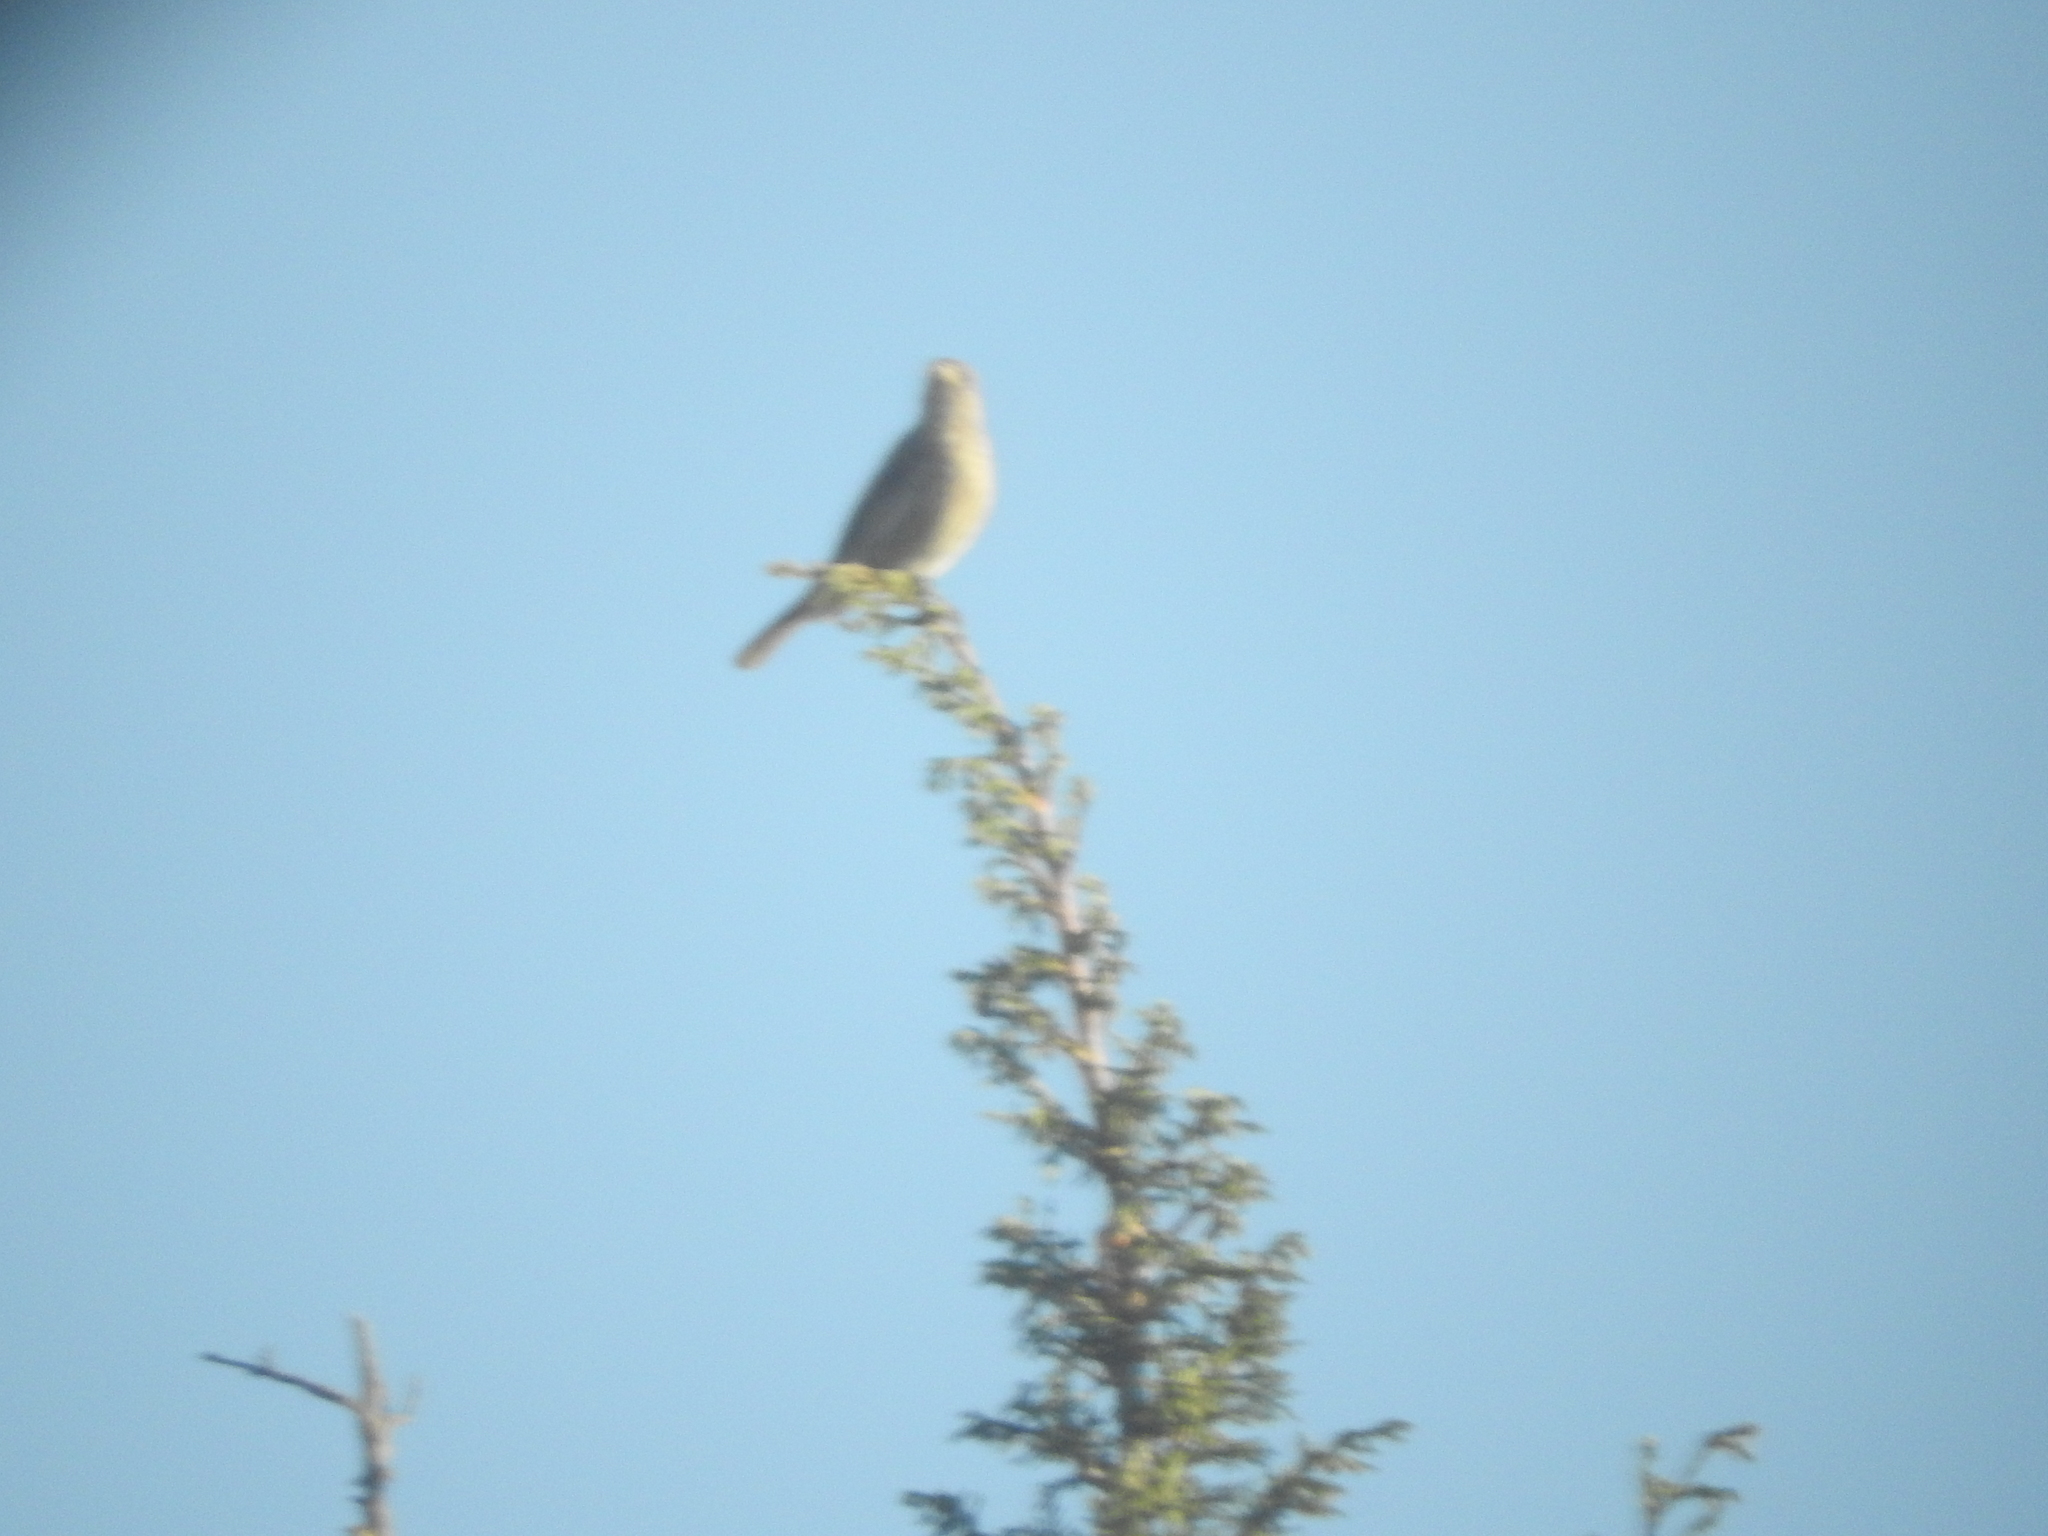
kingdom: Animalia
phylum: Chordata
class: Aves
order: Passeriformes
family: Fringillidae
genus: Haemorhous
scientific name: Haemorhous mexicanus
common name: House finch
